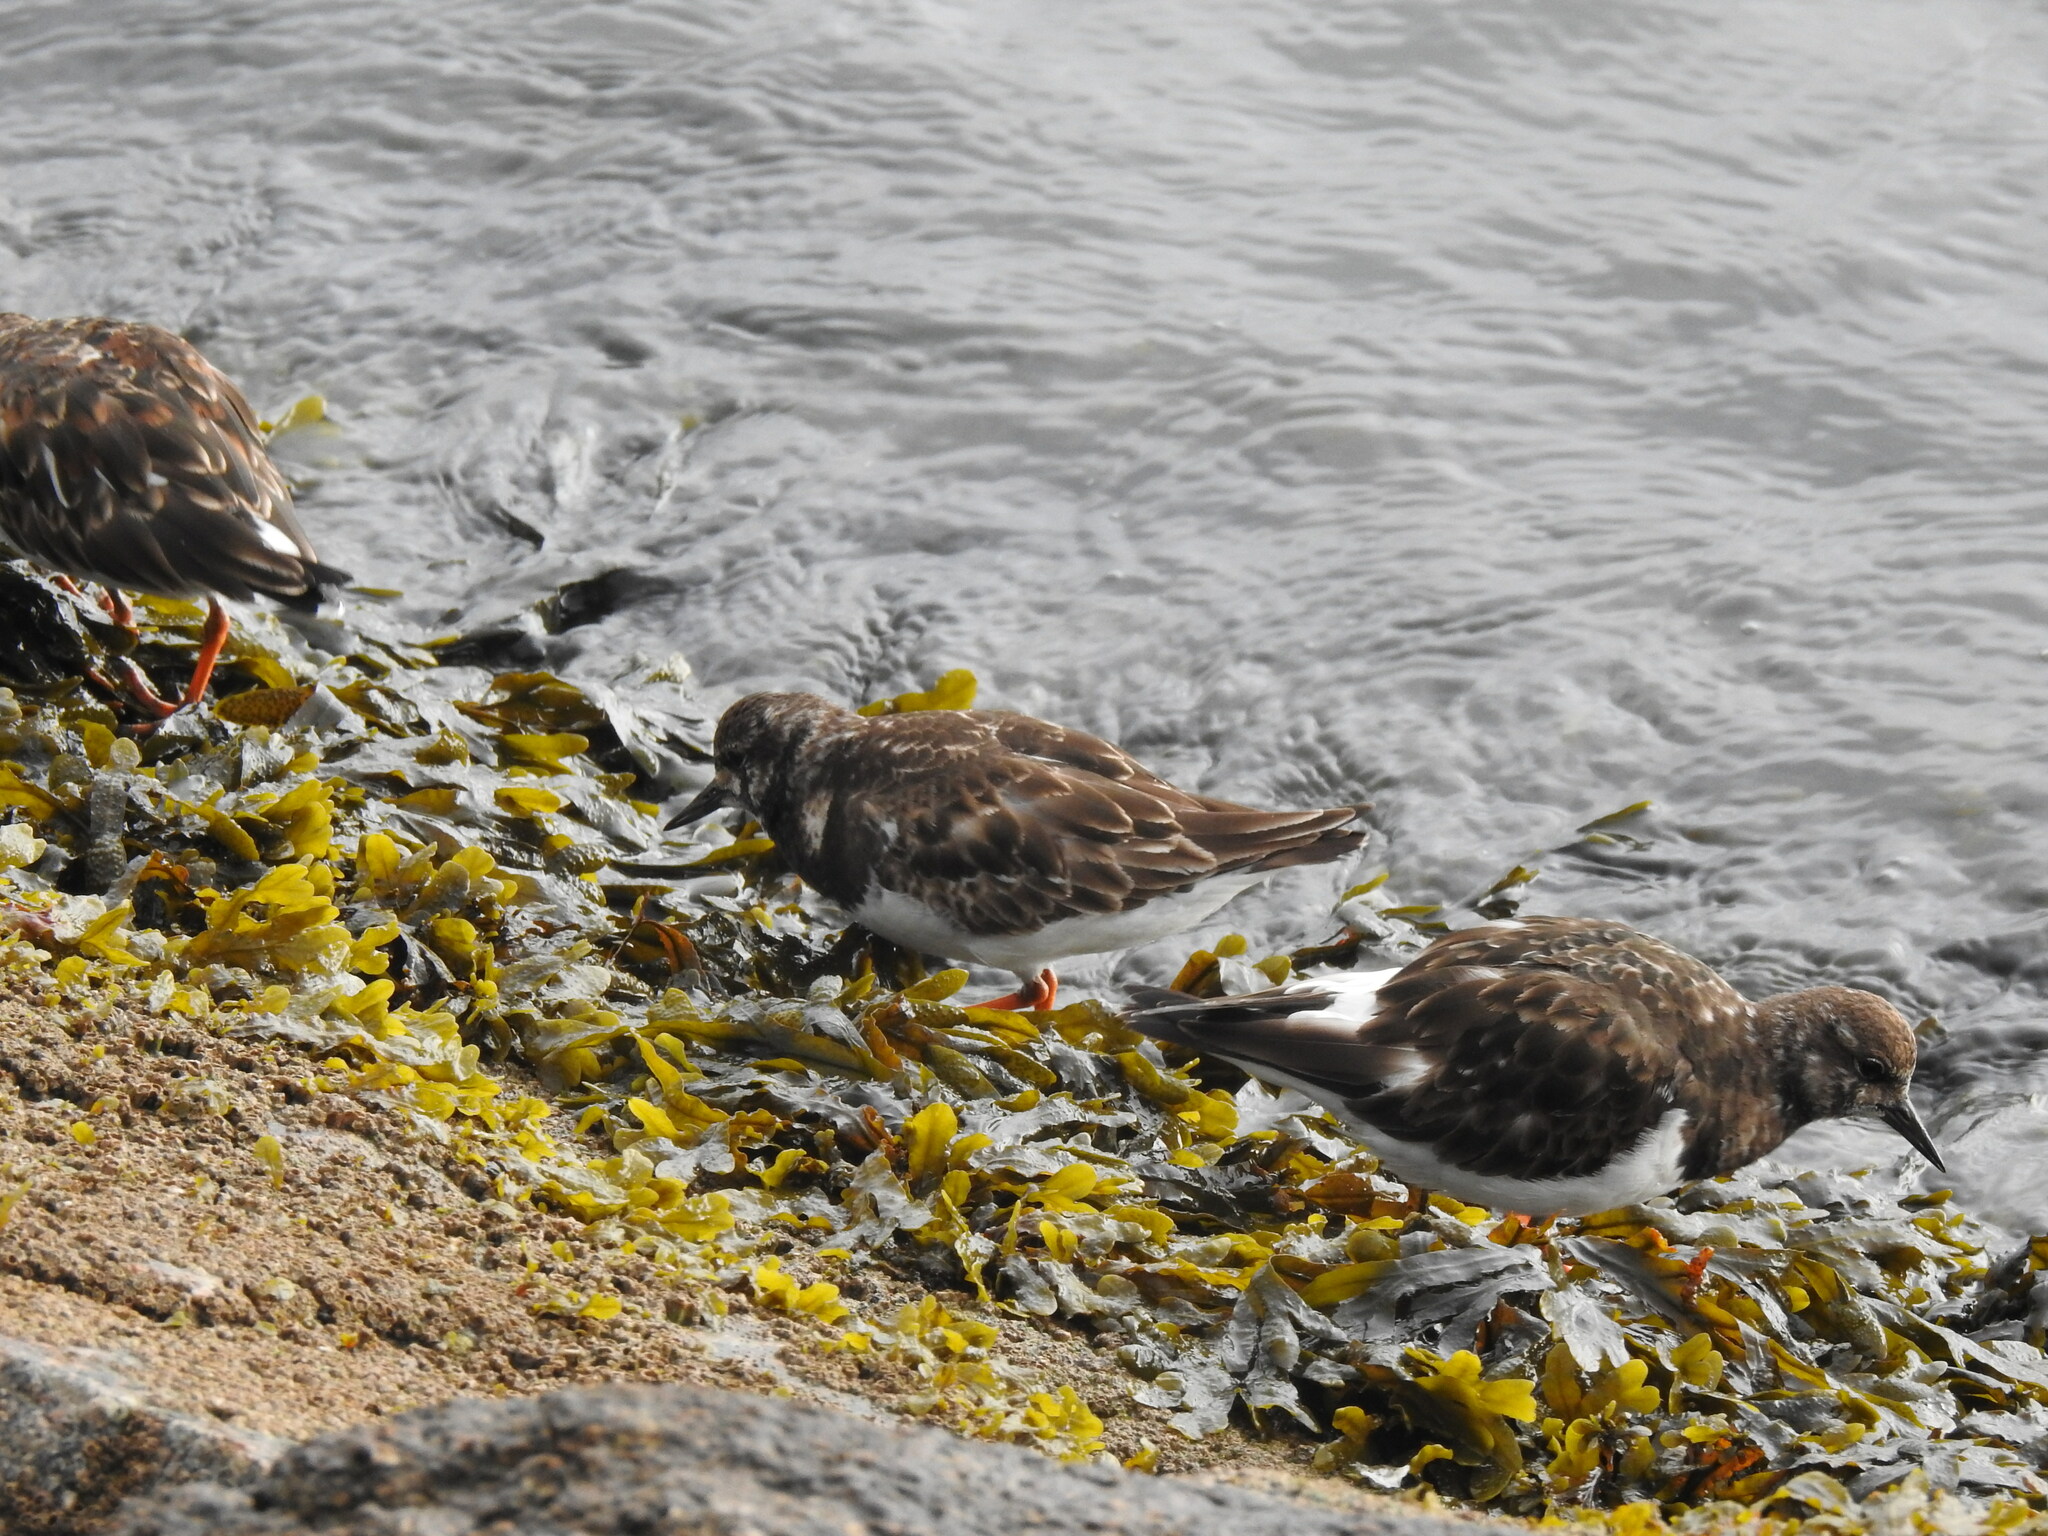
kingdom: Animalia
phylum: Chordata
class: Aves
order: Charadriiformes
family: Scolopacidae
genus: Arenaria
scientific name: Arenaria interpres
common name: Ruddy turnstone
